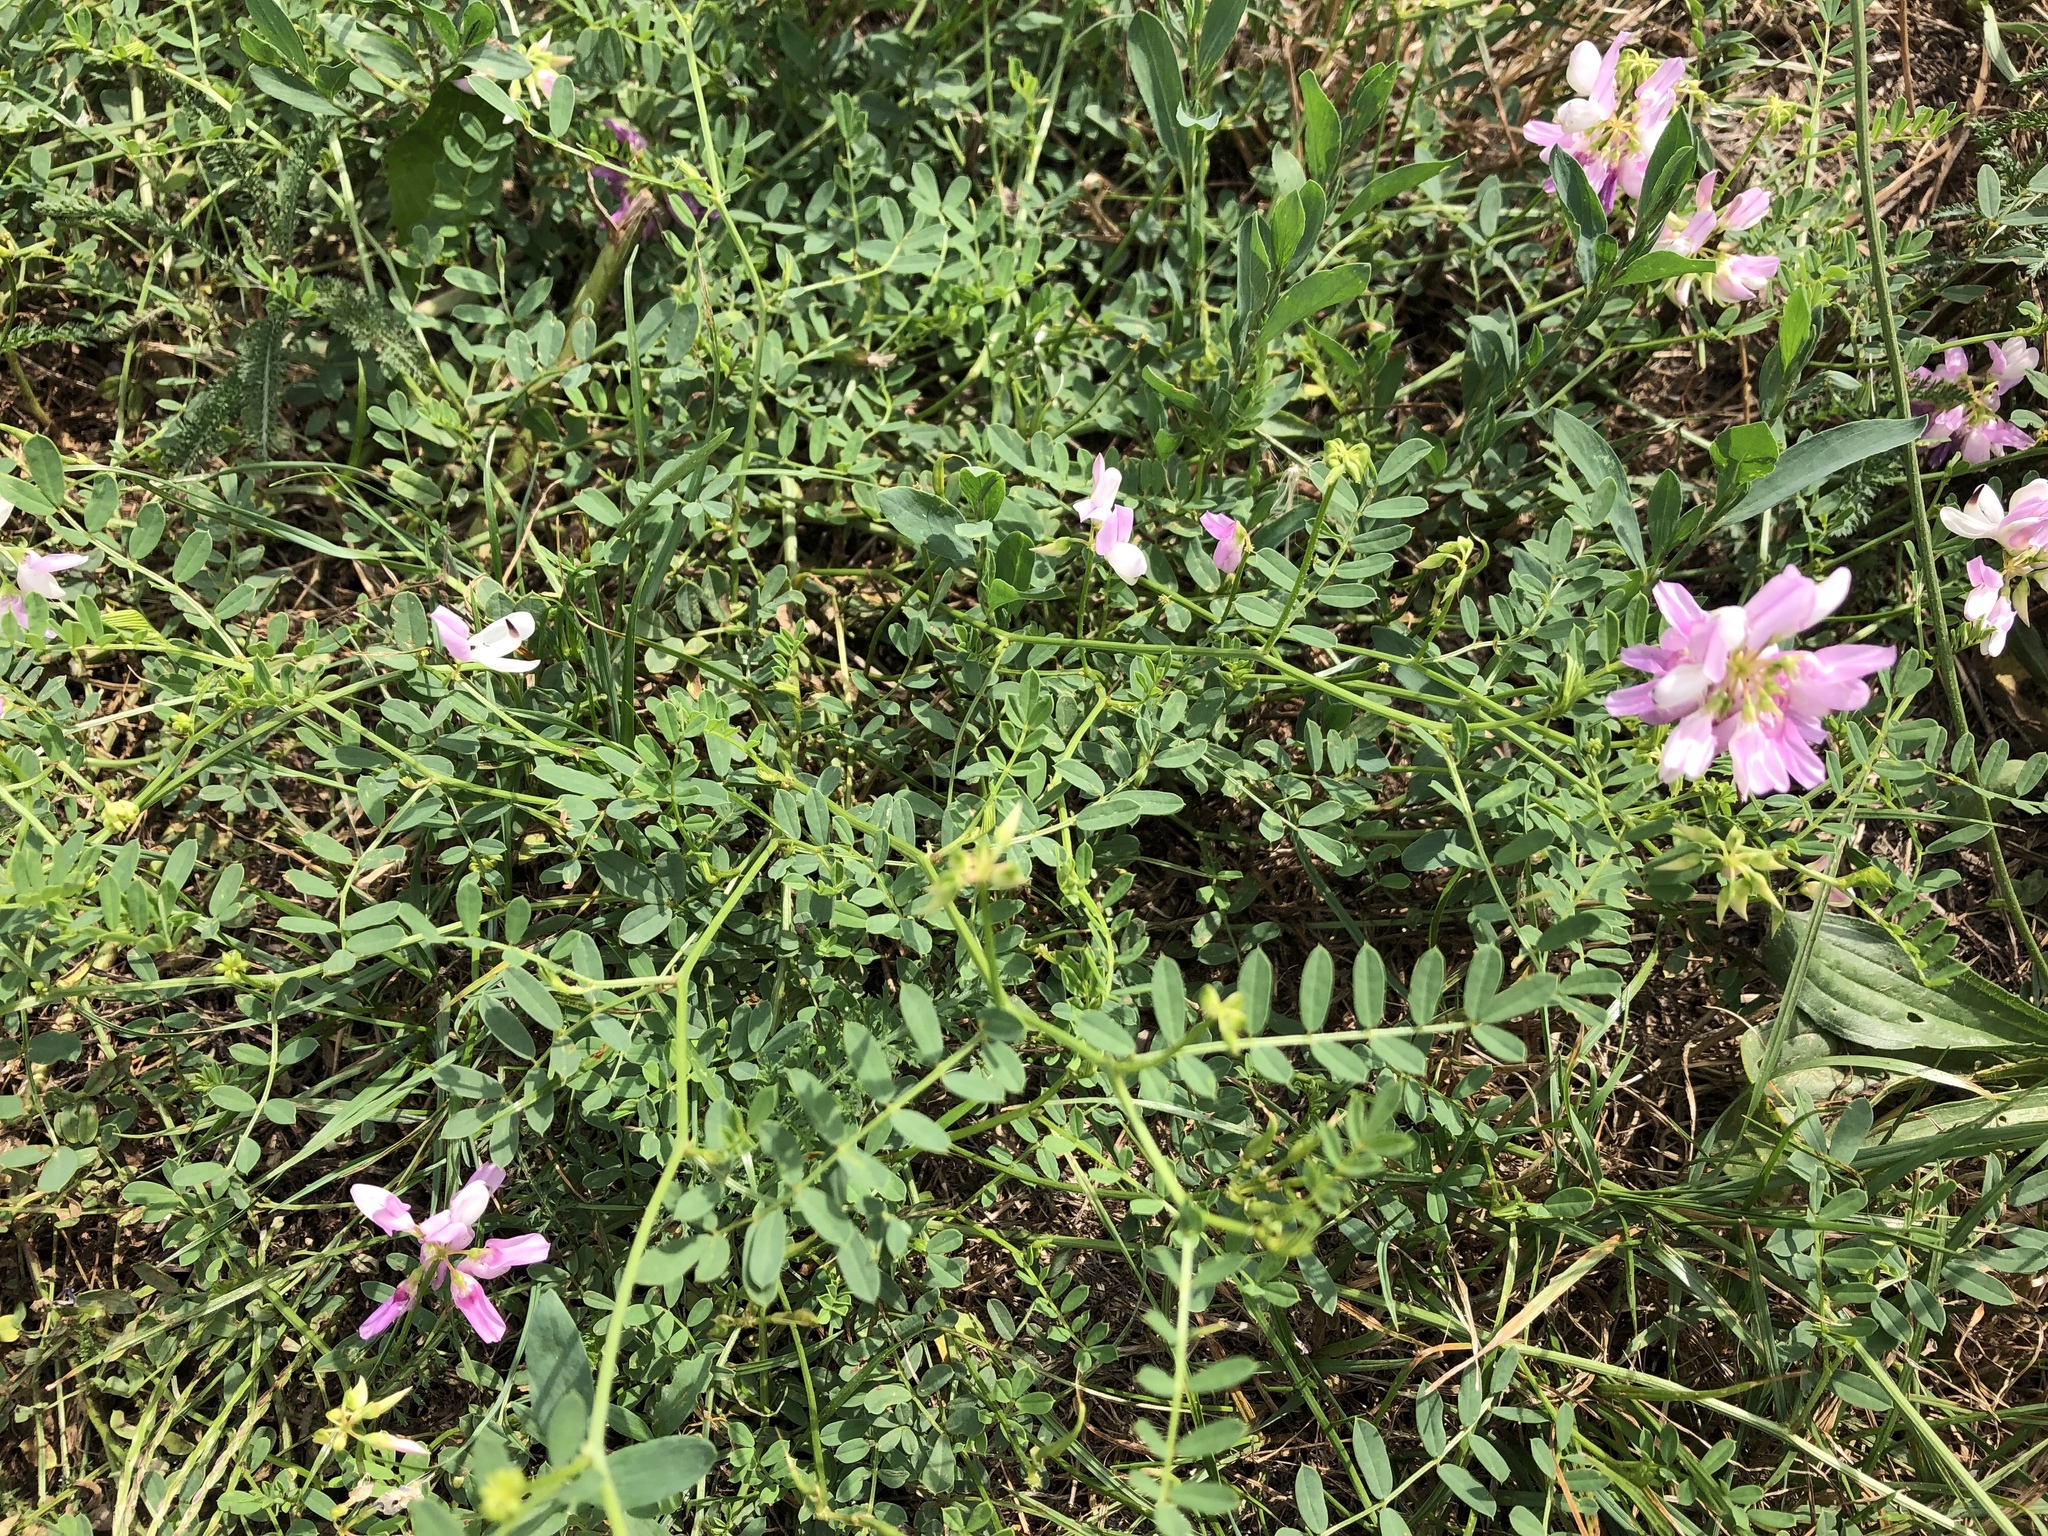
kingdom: Plantae
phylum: Tracheophyta
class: Magnoliopsida
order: Fabales
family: Fabaceae
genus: Coronilla
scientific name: Coronilla varia
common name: Crownvetch
